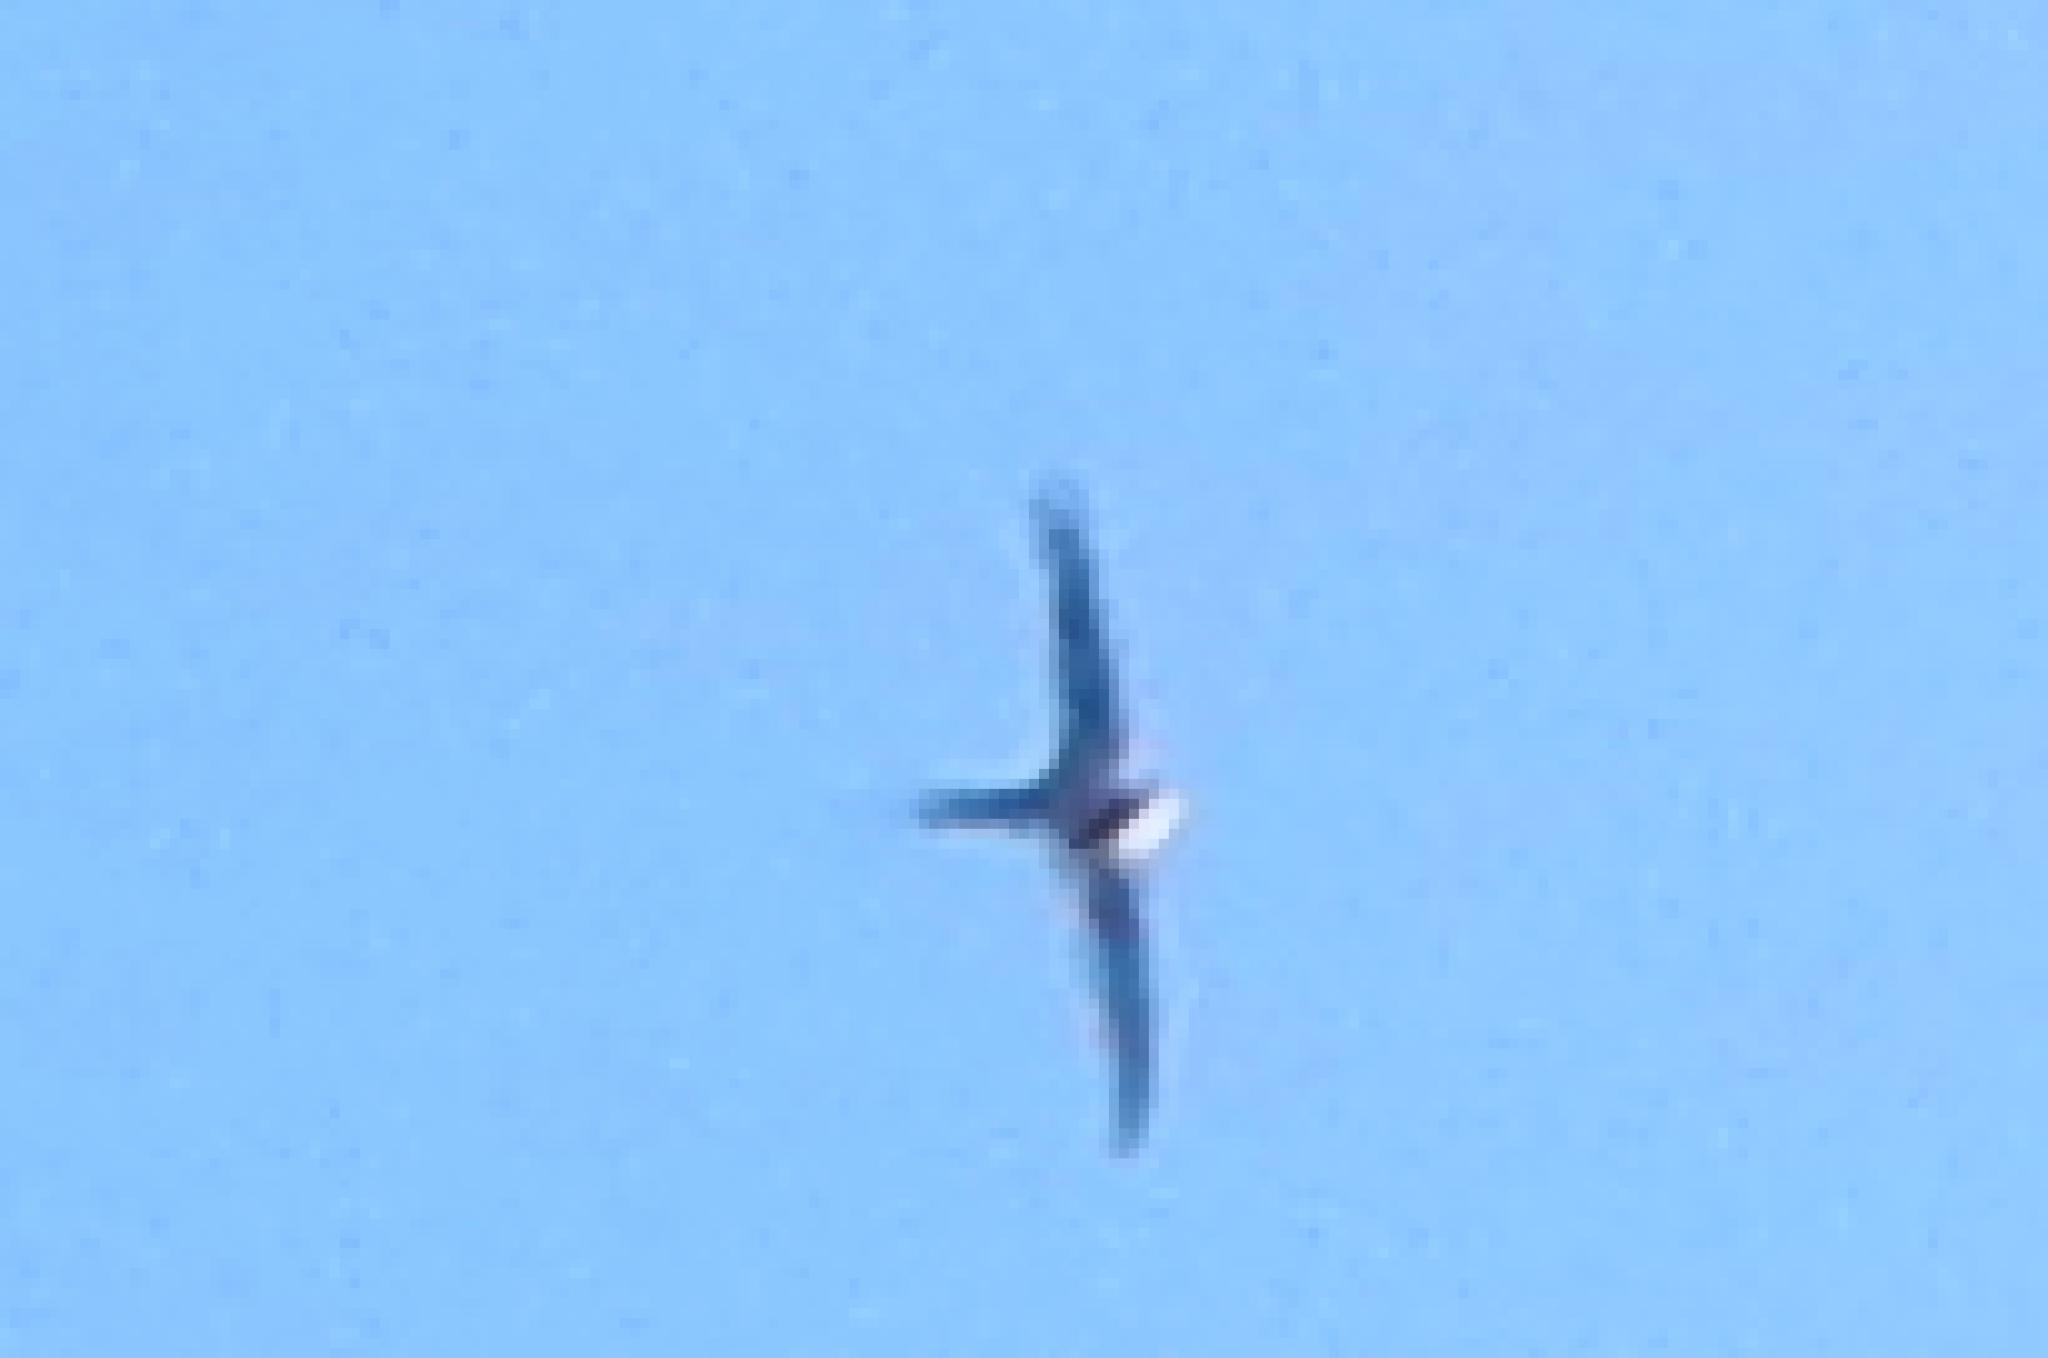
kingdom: Animalia
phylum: Chordata
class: Aves
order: Apodiformes
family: Apodidae
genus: Cypsiurus
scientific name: Cypsiurus parvus
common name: African palm swift
